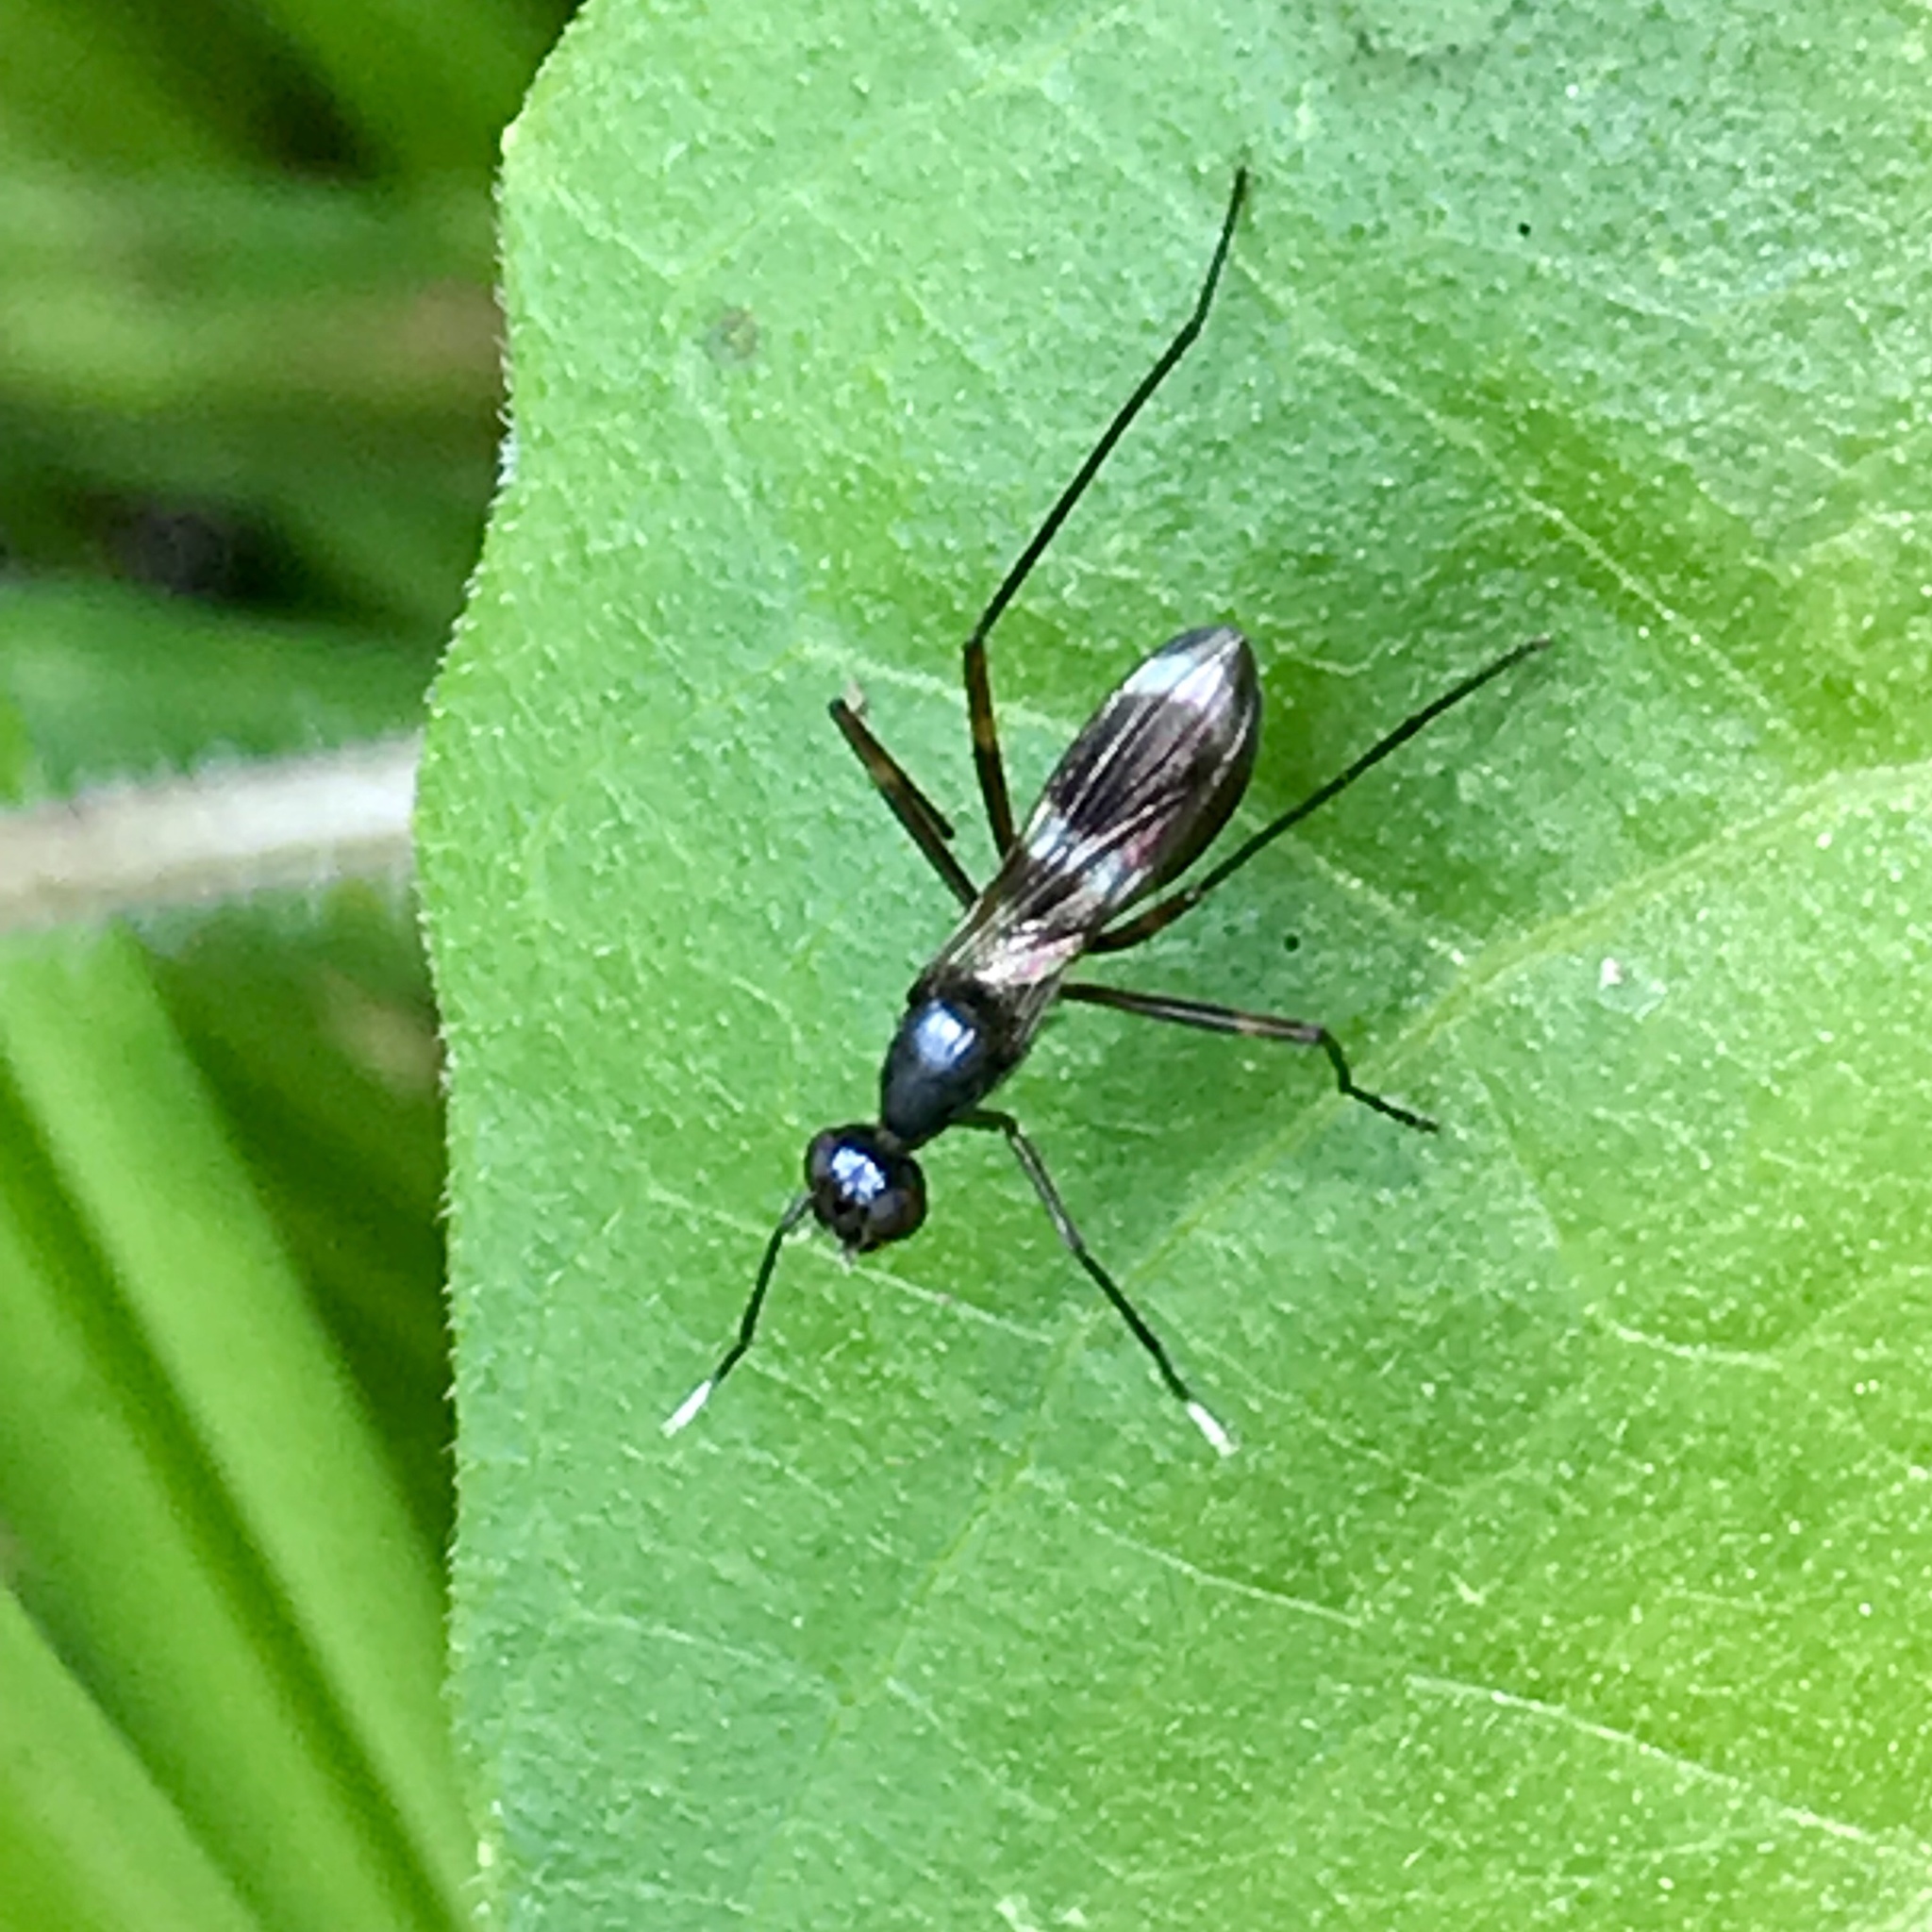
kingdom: Animalia
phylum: Arthropoda
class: Insecta
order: Diptera
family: Micropezidae
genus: Taeniaptera
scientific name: Taeniaptera trivittata
